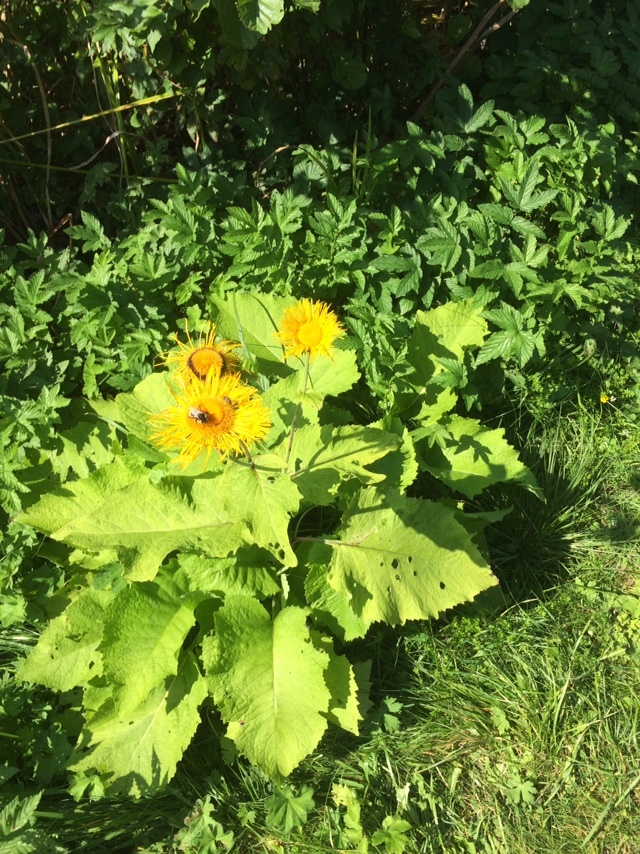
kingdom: Plantae
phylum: Tracheophyta
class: Magnoliopsida
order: Asterales
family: Asteraceae
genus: Telekia
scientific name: Telekia speciosa
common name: Yellow oxeye
